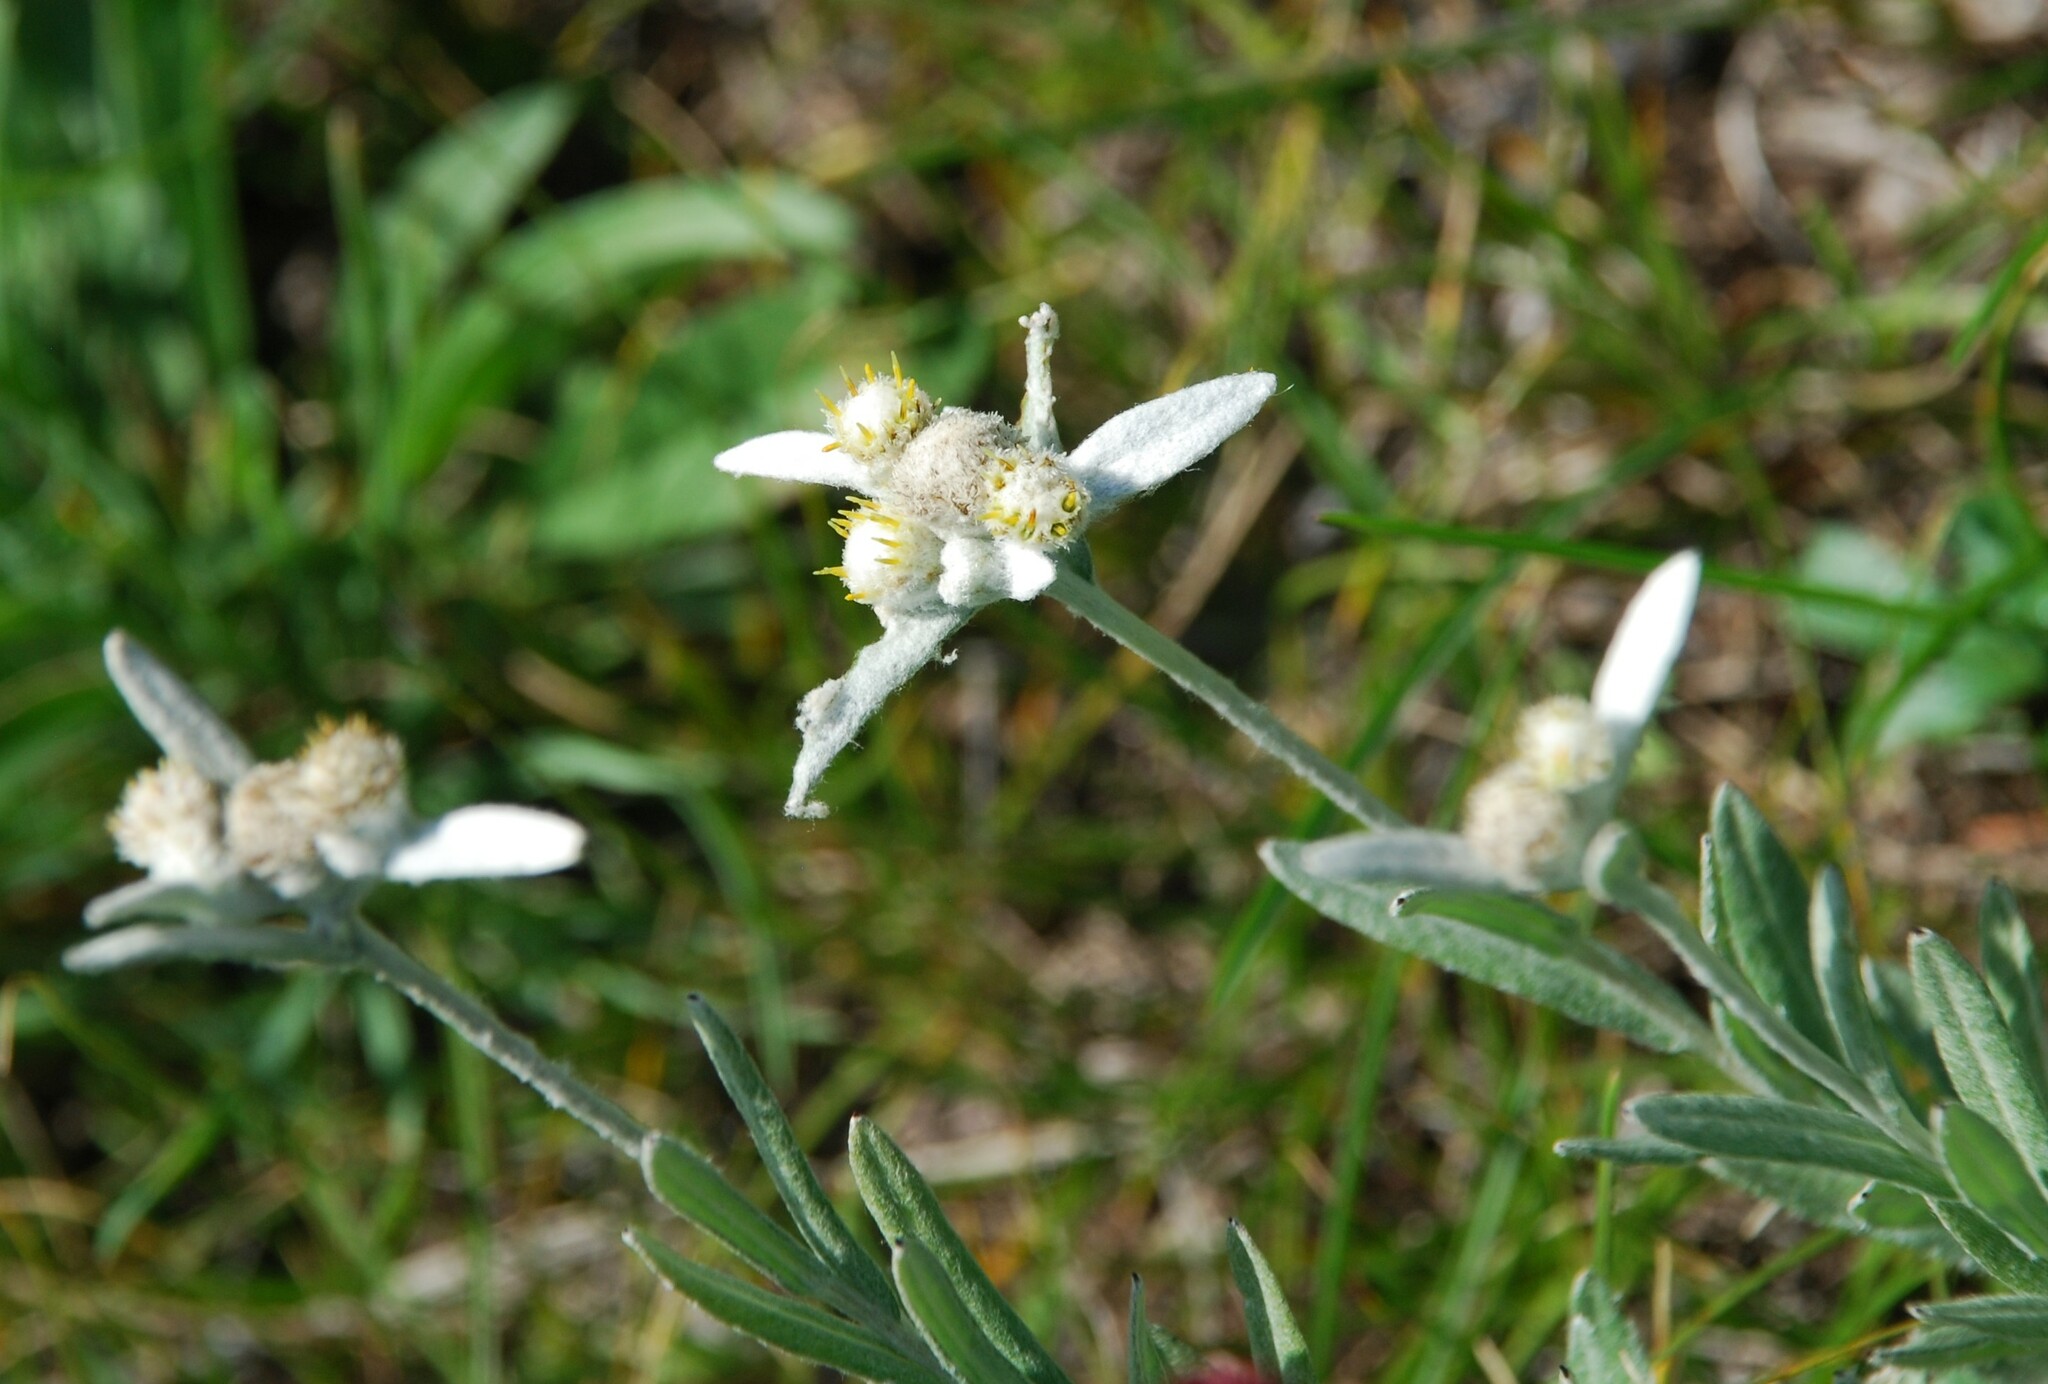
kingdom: Plantae
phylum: Tracheophyta
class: Magnoliopsida
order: Asterales
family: Asteraceae
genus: Leontopodium
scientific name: Leontopodium leontopodioides
